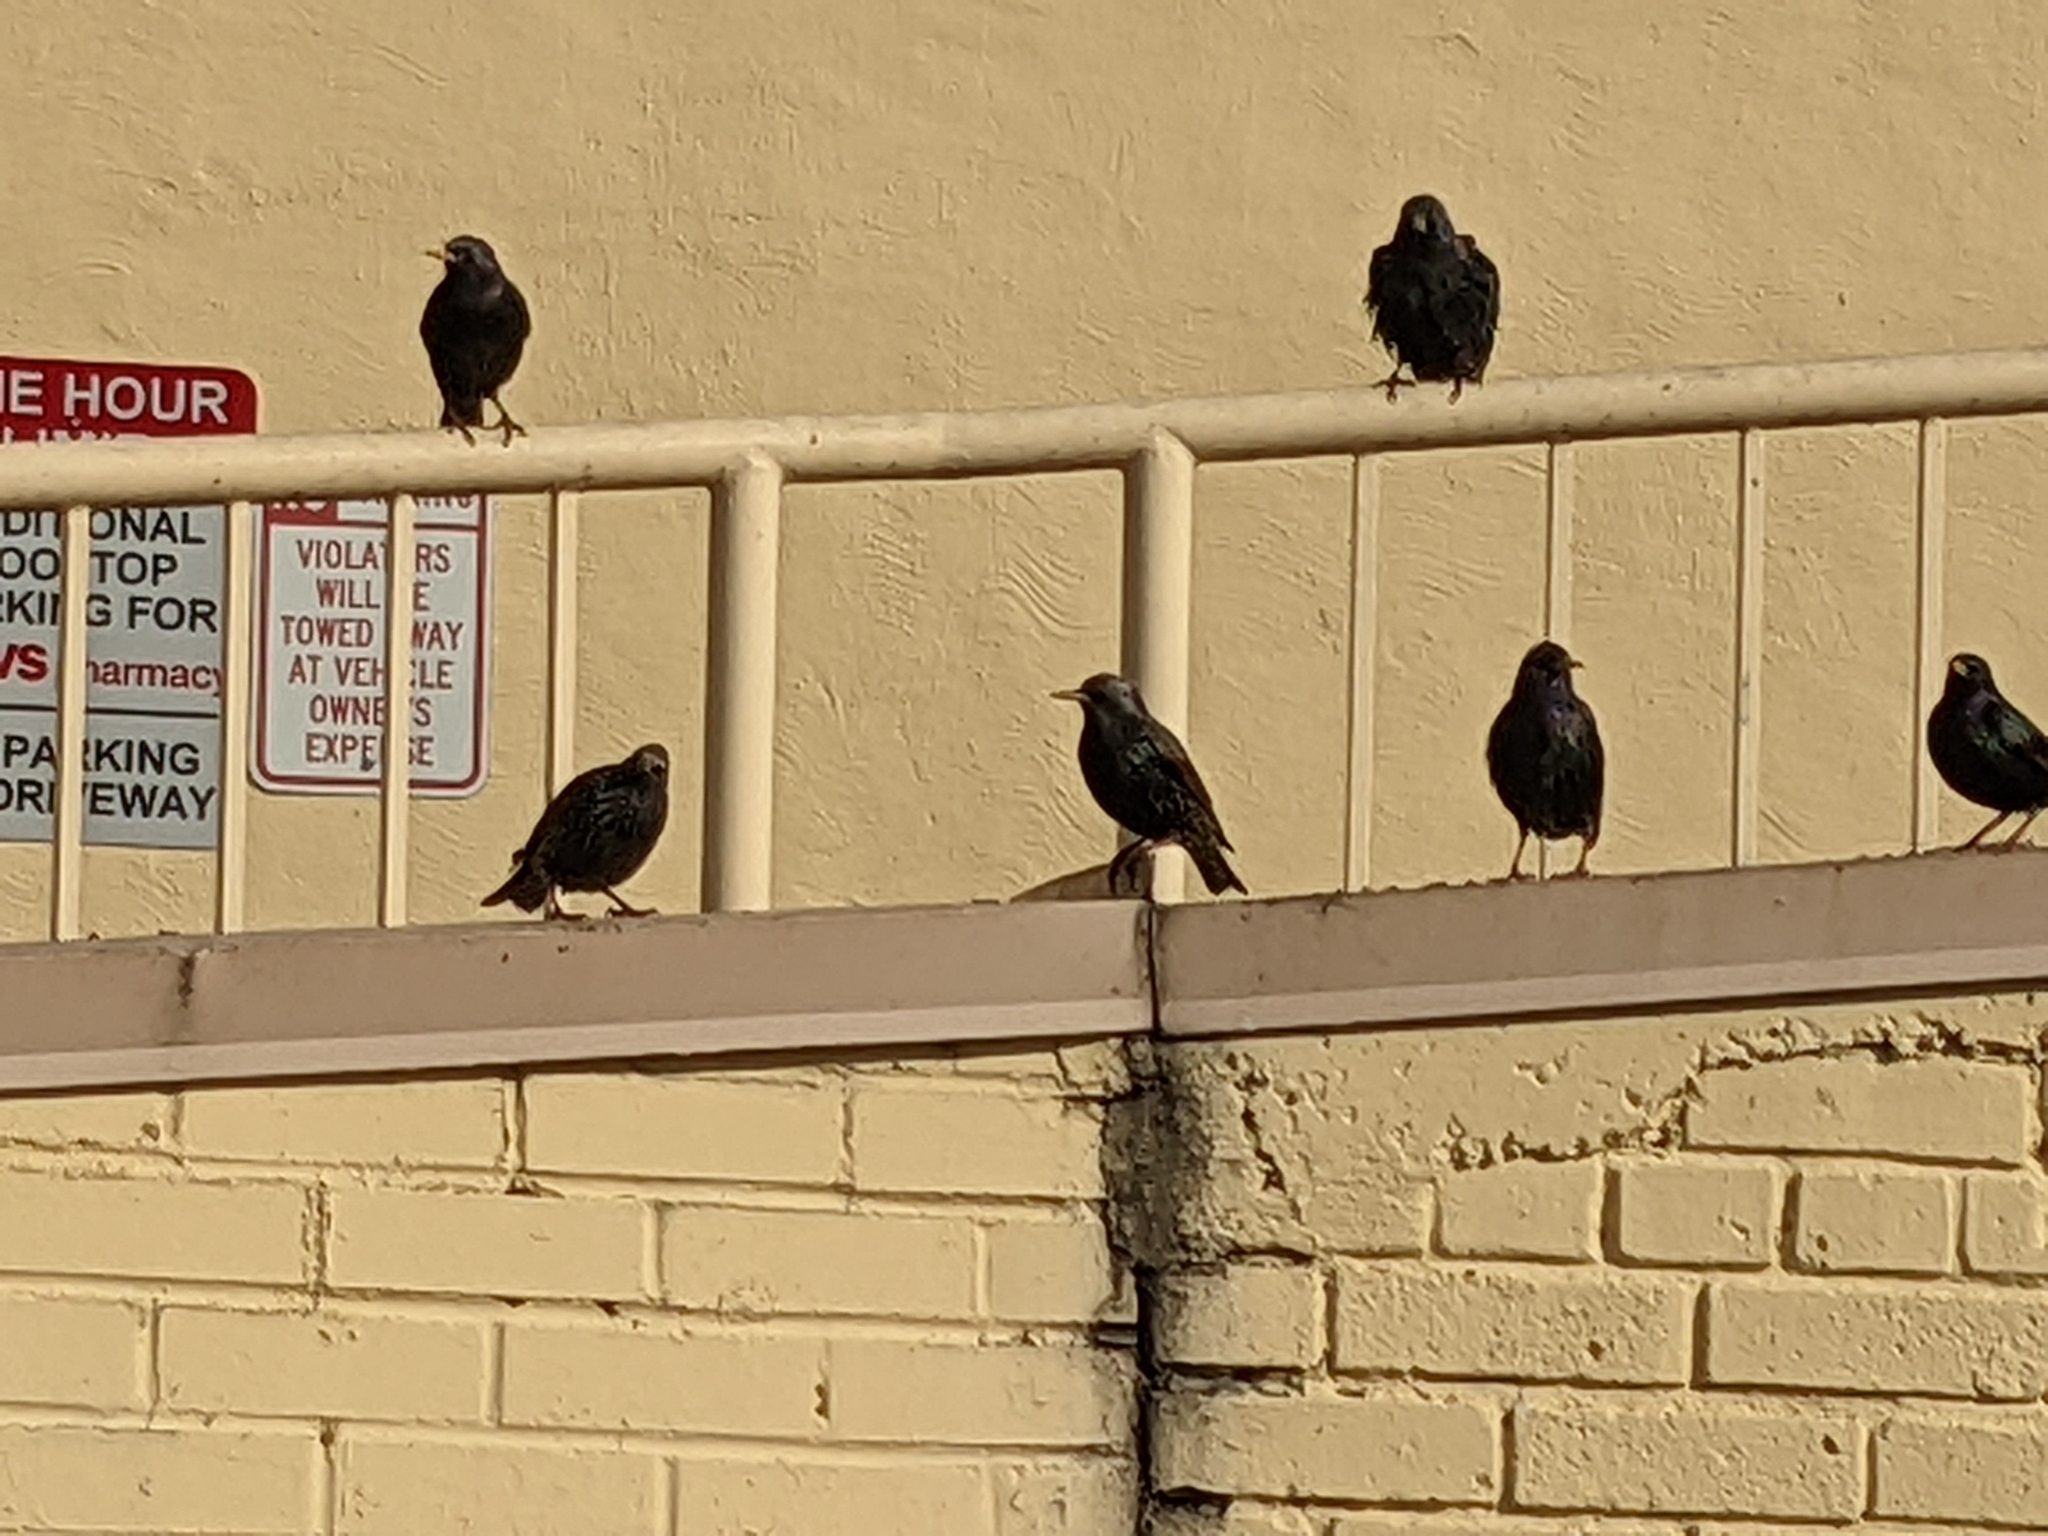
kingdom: Animalia
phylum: Chordata
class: Aves
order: Passeriformes
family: Sturnidae
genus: Sturnus
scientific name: Sturnus vulgaris
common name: Common starling
